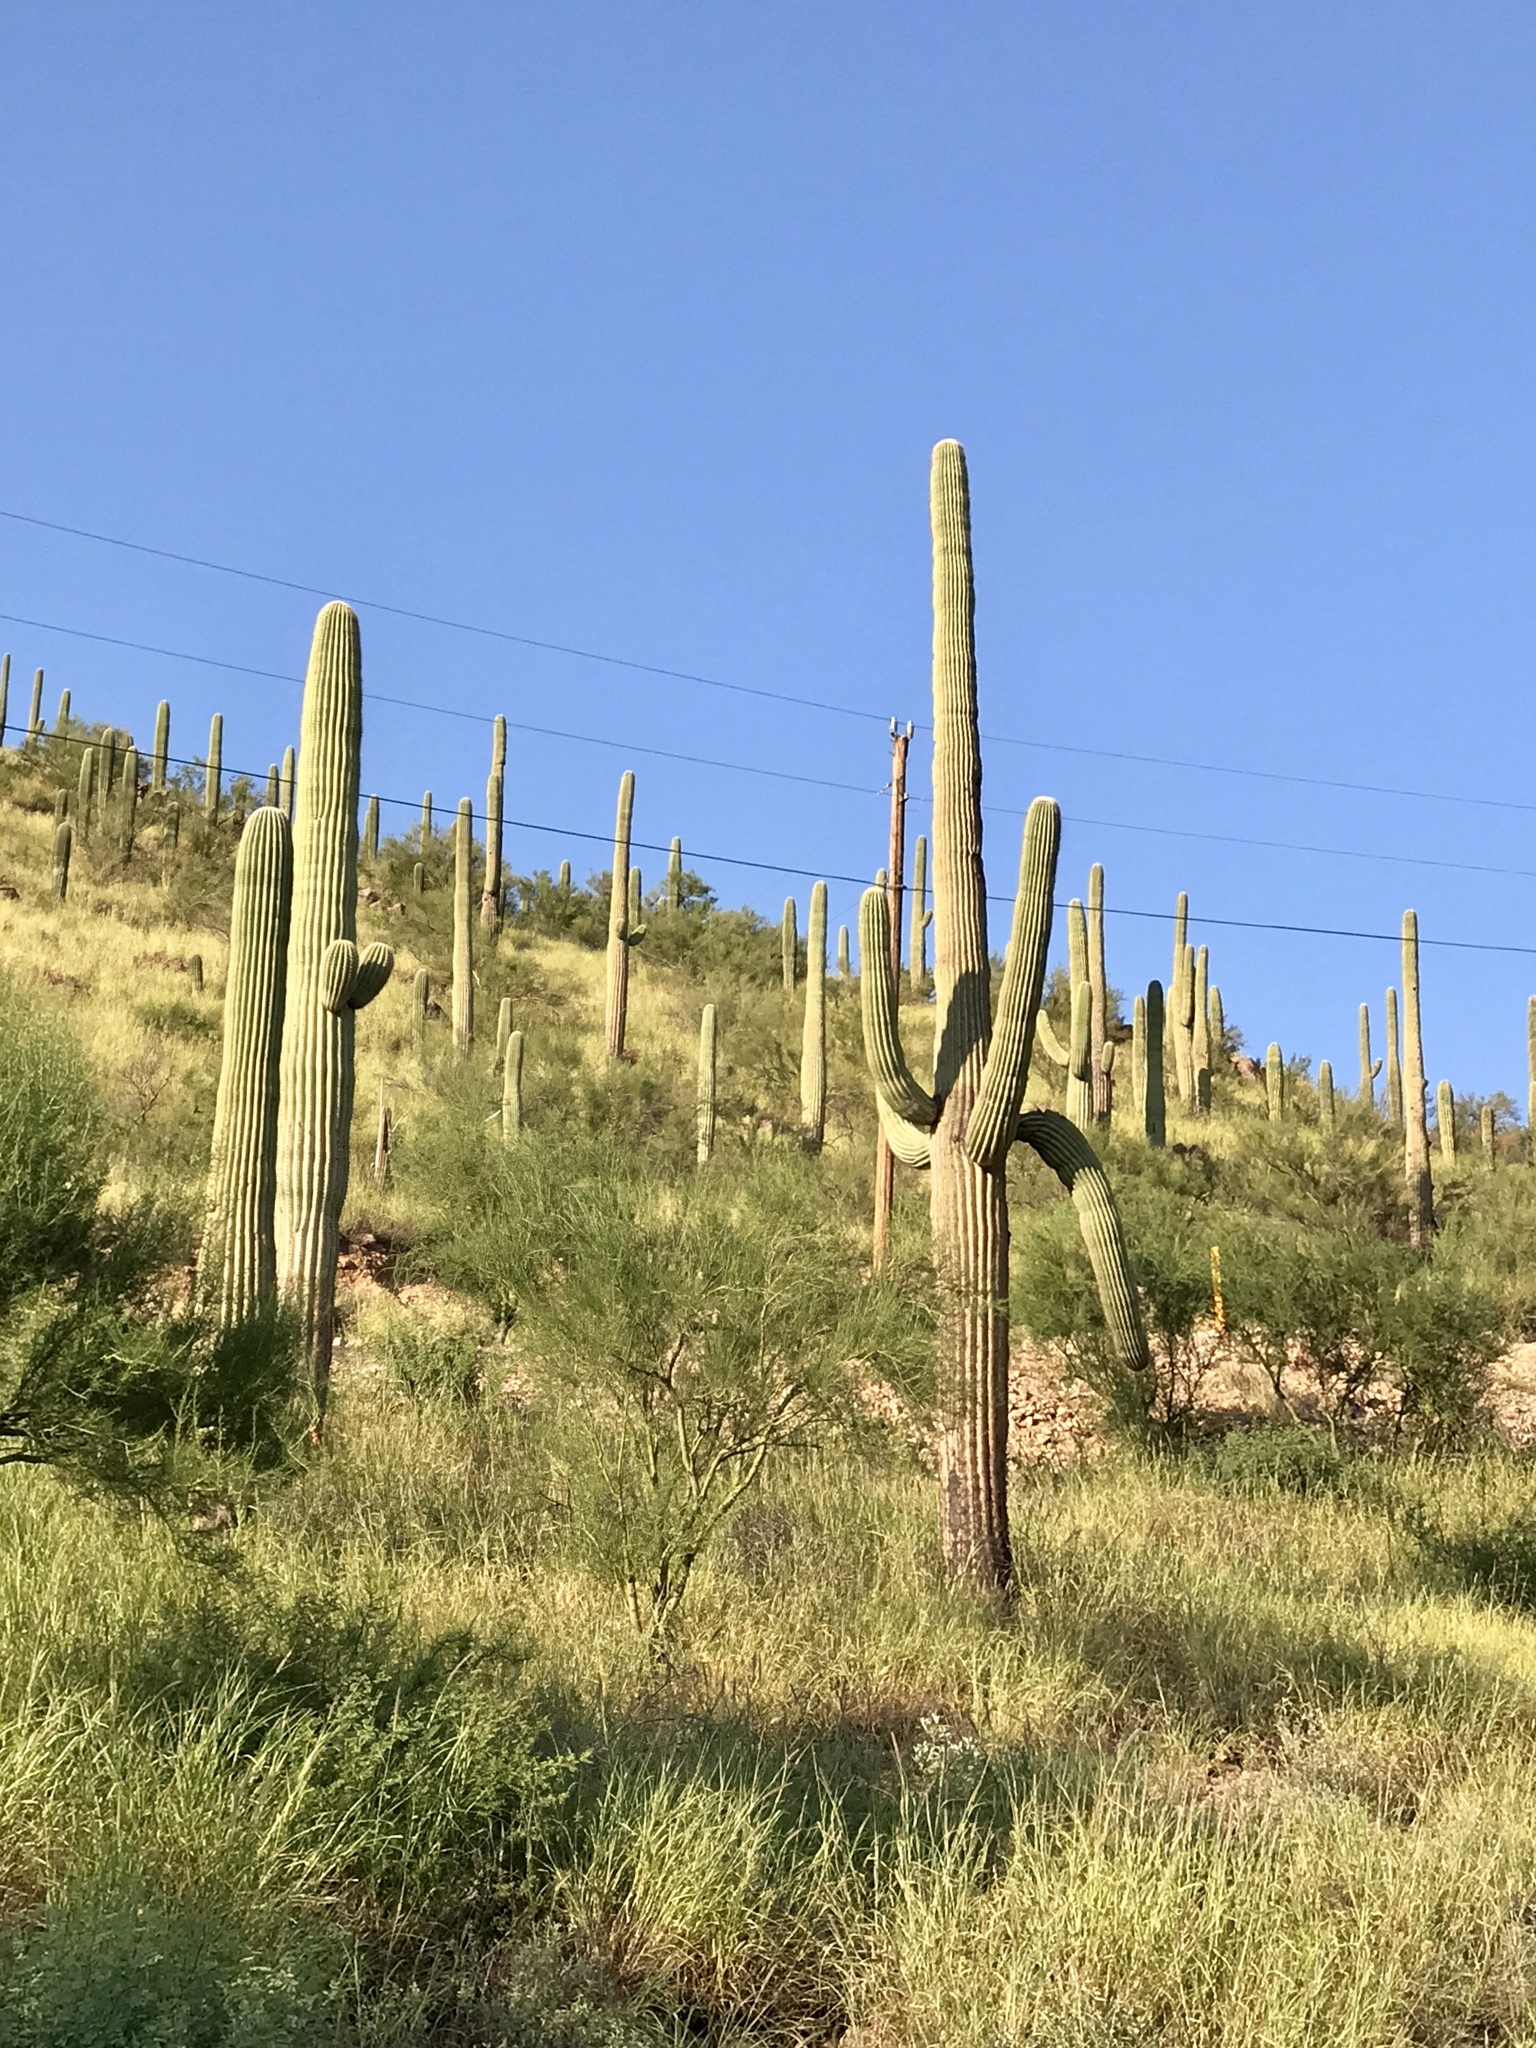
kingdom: Plantae
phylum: Tracheophyta
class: Magnoliopsida
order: Caryophyllales
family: Cactaceae
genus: Carnegiea
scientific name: Carnegiea gigantea
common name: Saguaro
